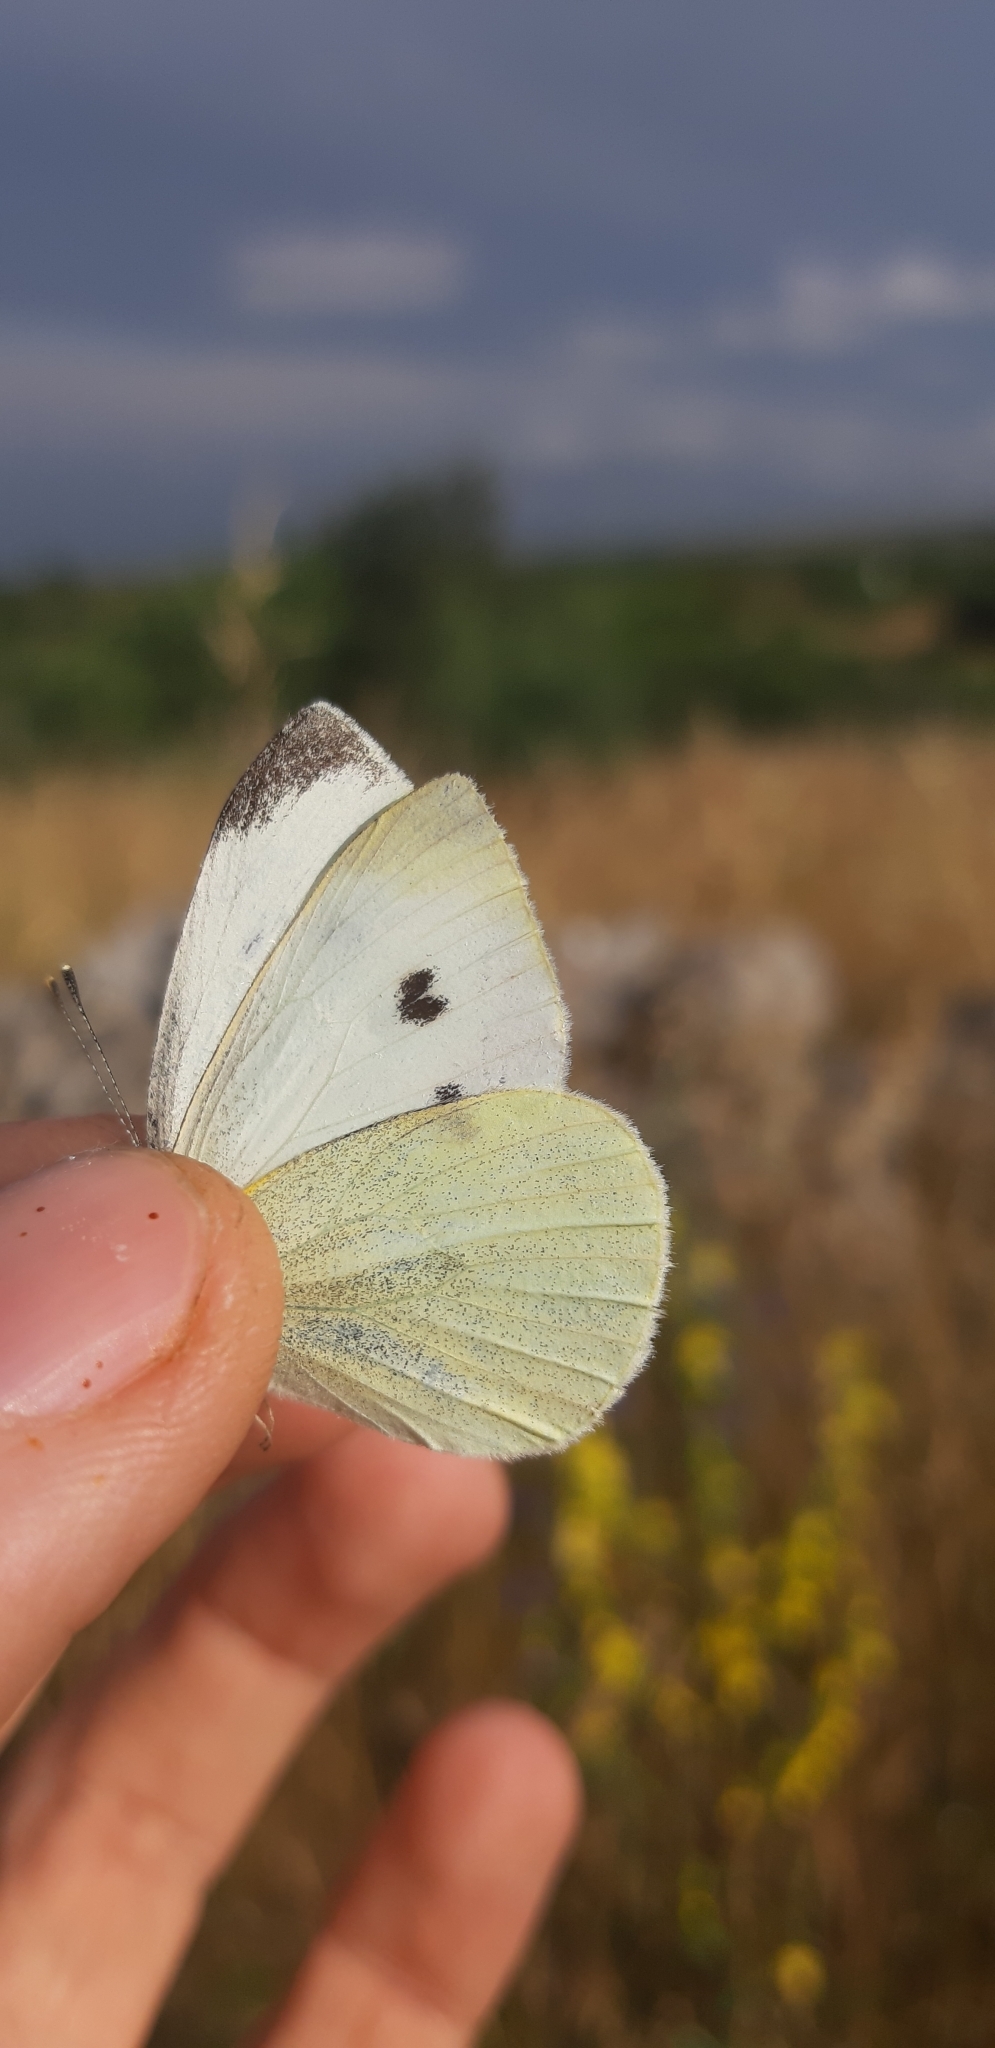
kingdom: Animalia
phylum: Arthropoda
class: Insecta
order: Lepidoptera
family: Pieridae
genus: Pieris
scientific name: Pieris rapae
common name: Small white
